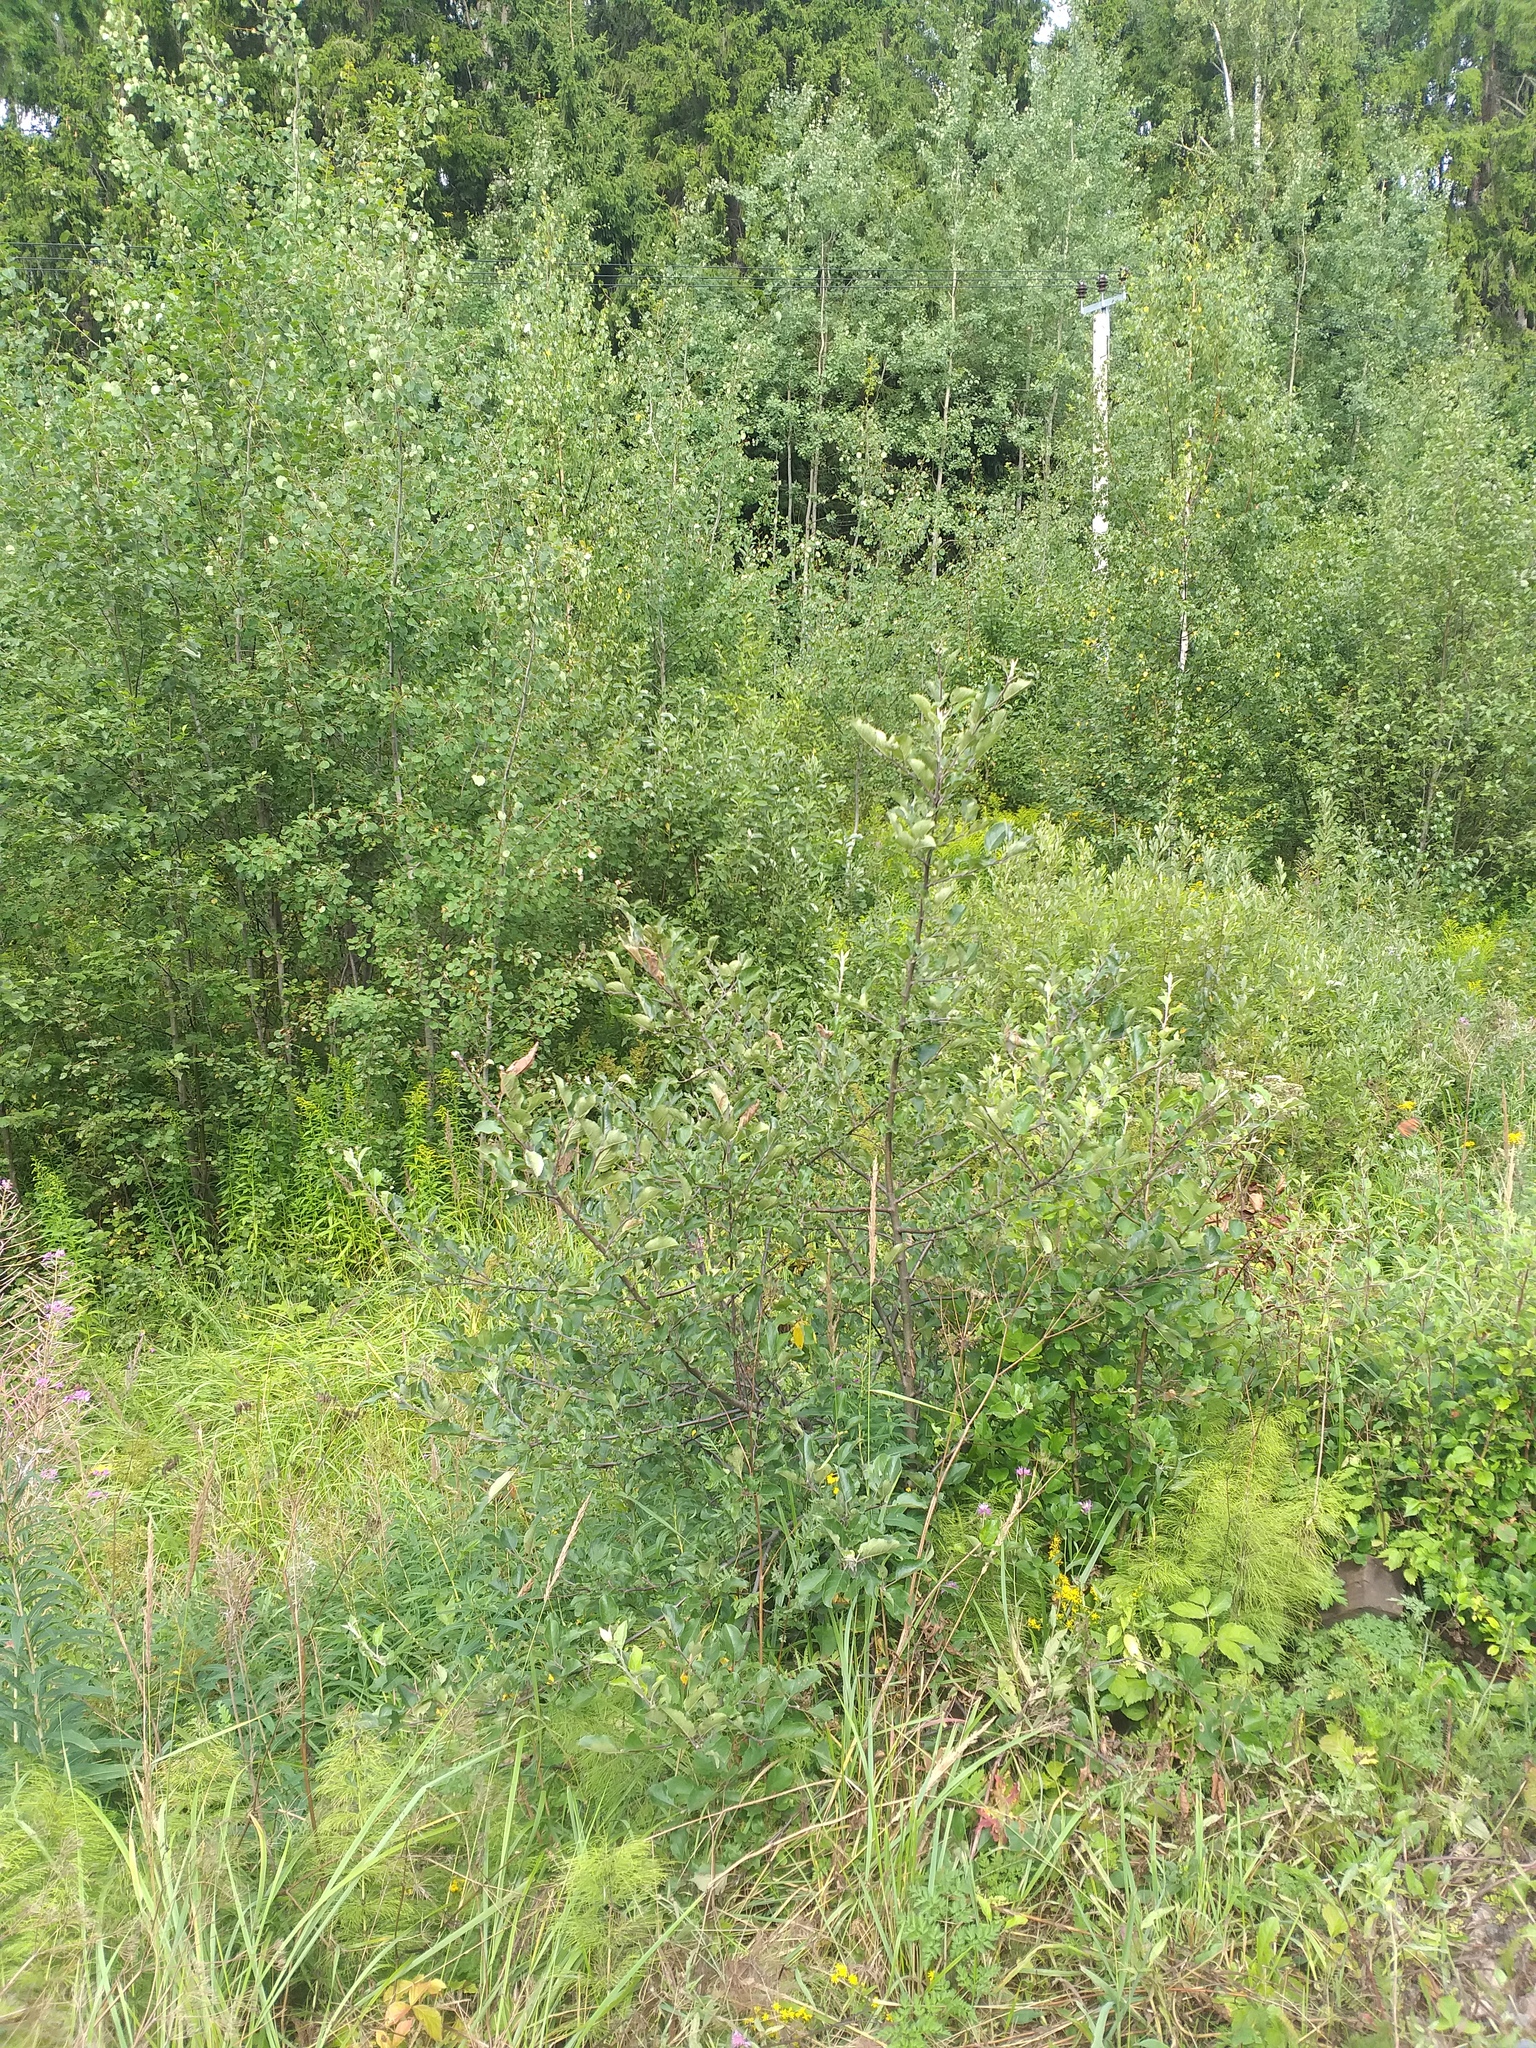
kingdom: Plantae
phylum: Tracheophyta
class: Magnoliopsida
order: Rosales
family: Rosaceae
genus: Malus
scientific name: Malus domestica
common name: Apple
